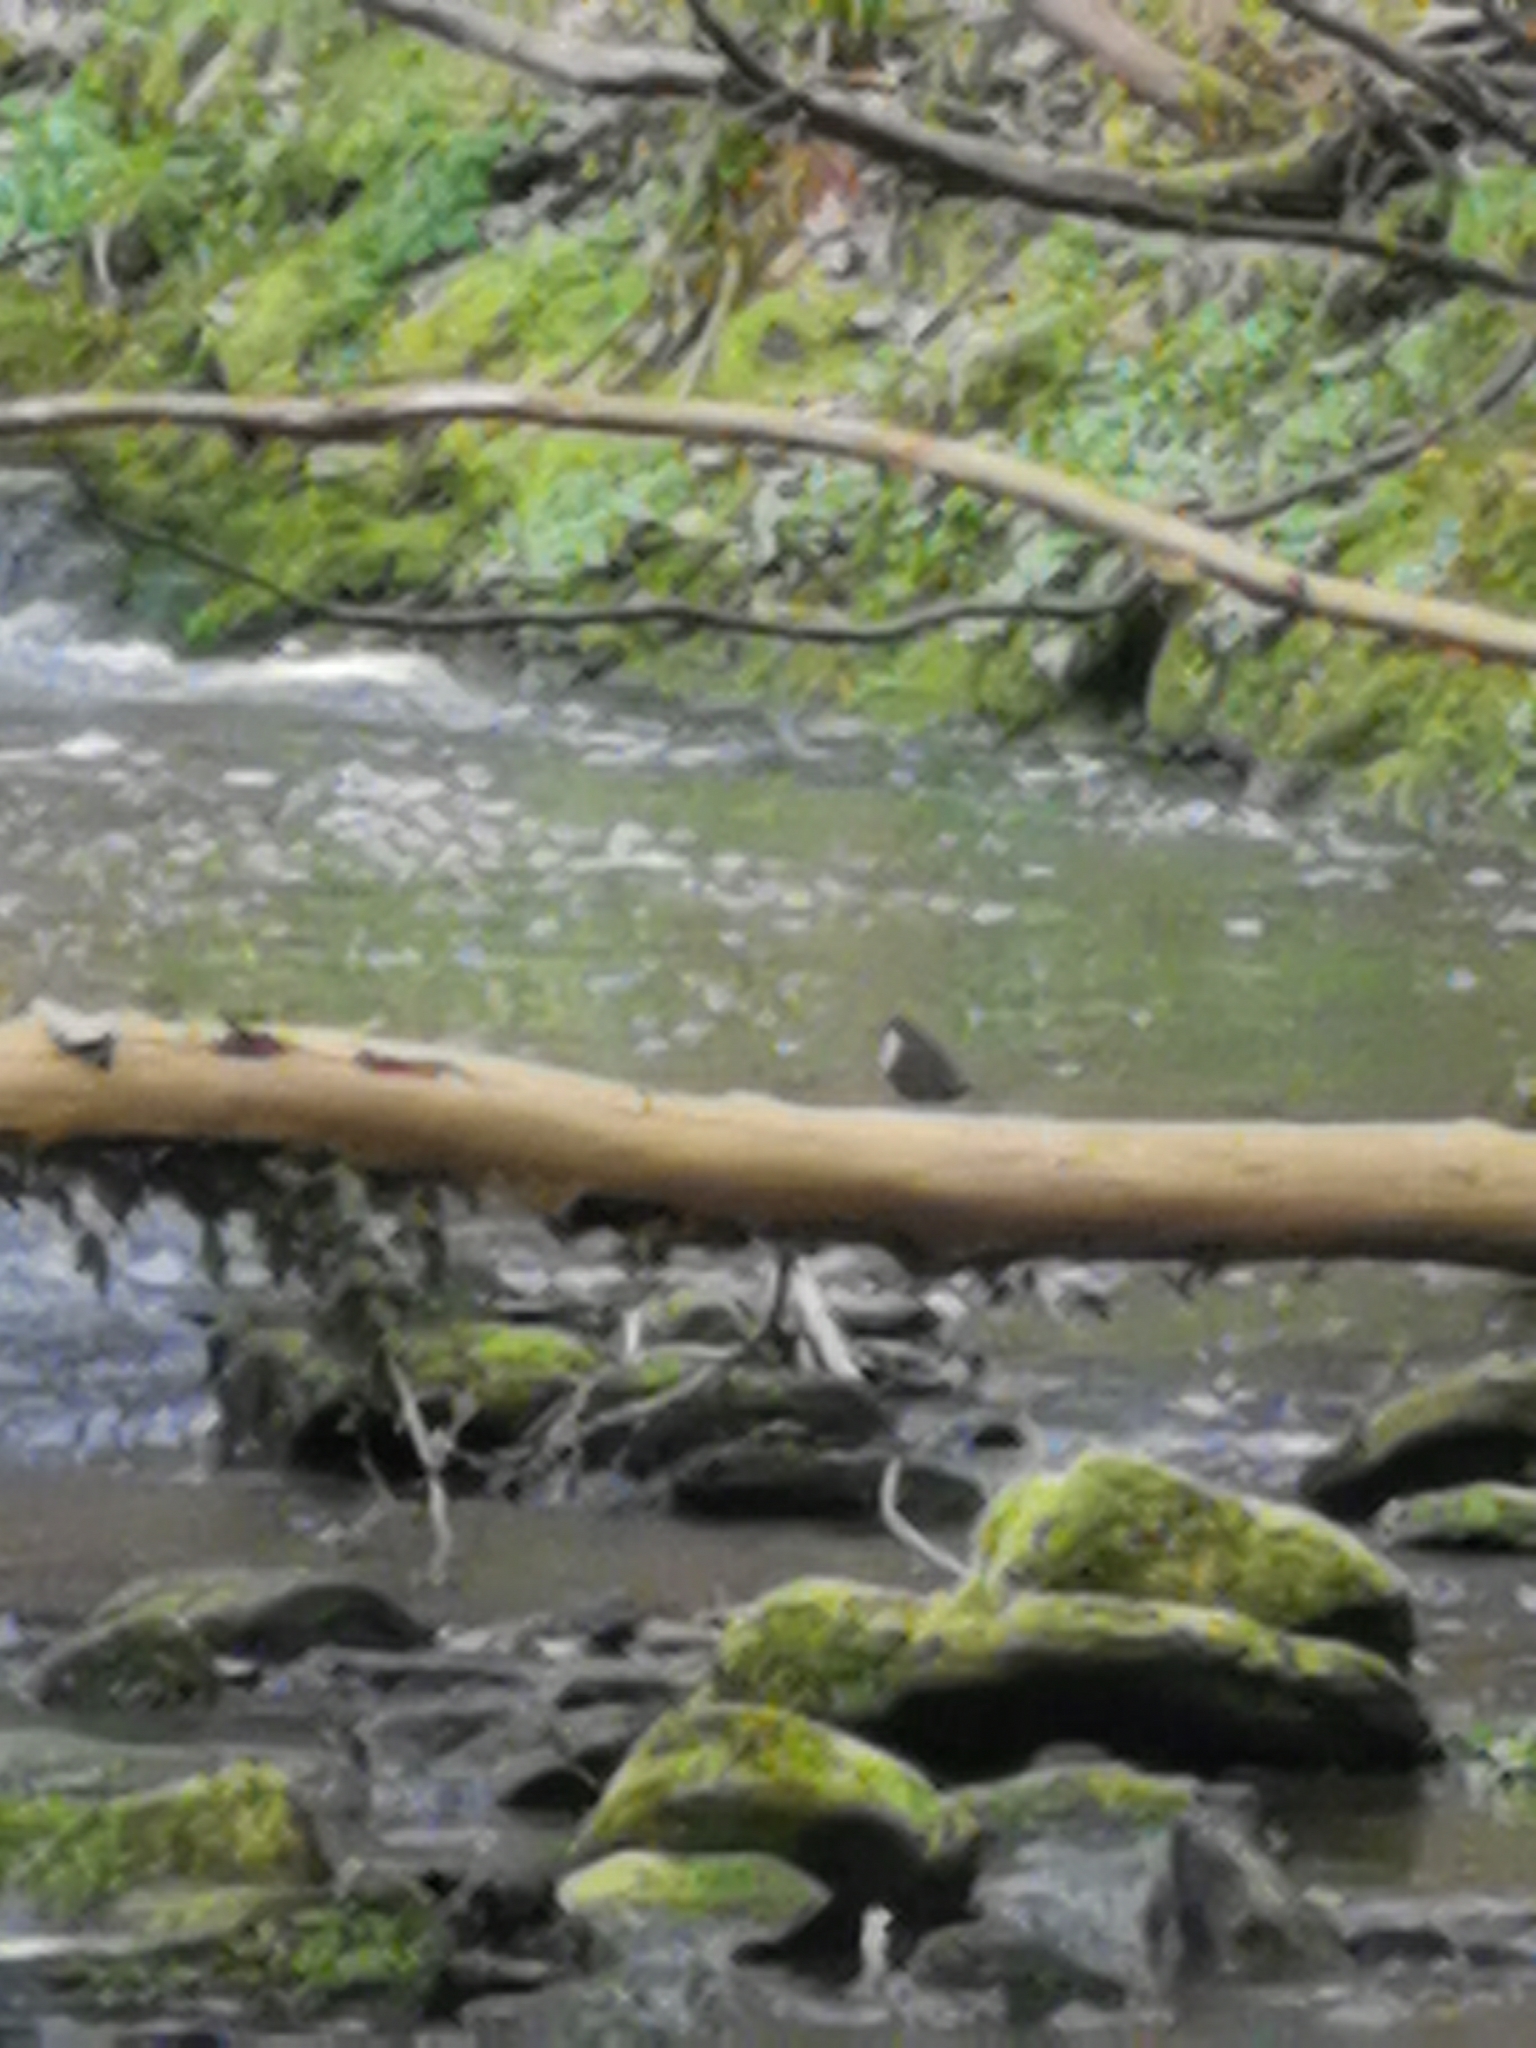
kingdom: Animalia
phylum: Chordata
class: Aves
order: Passeriformes
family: Cinclidae
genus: Cinclus
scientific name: Cinclus cinclus
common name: White-throated dipper
